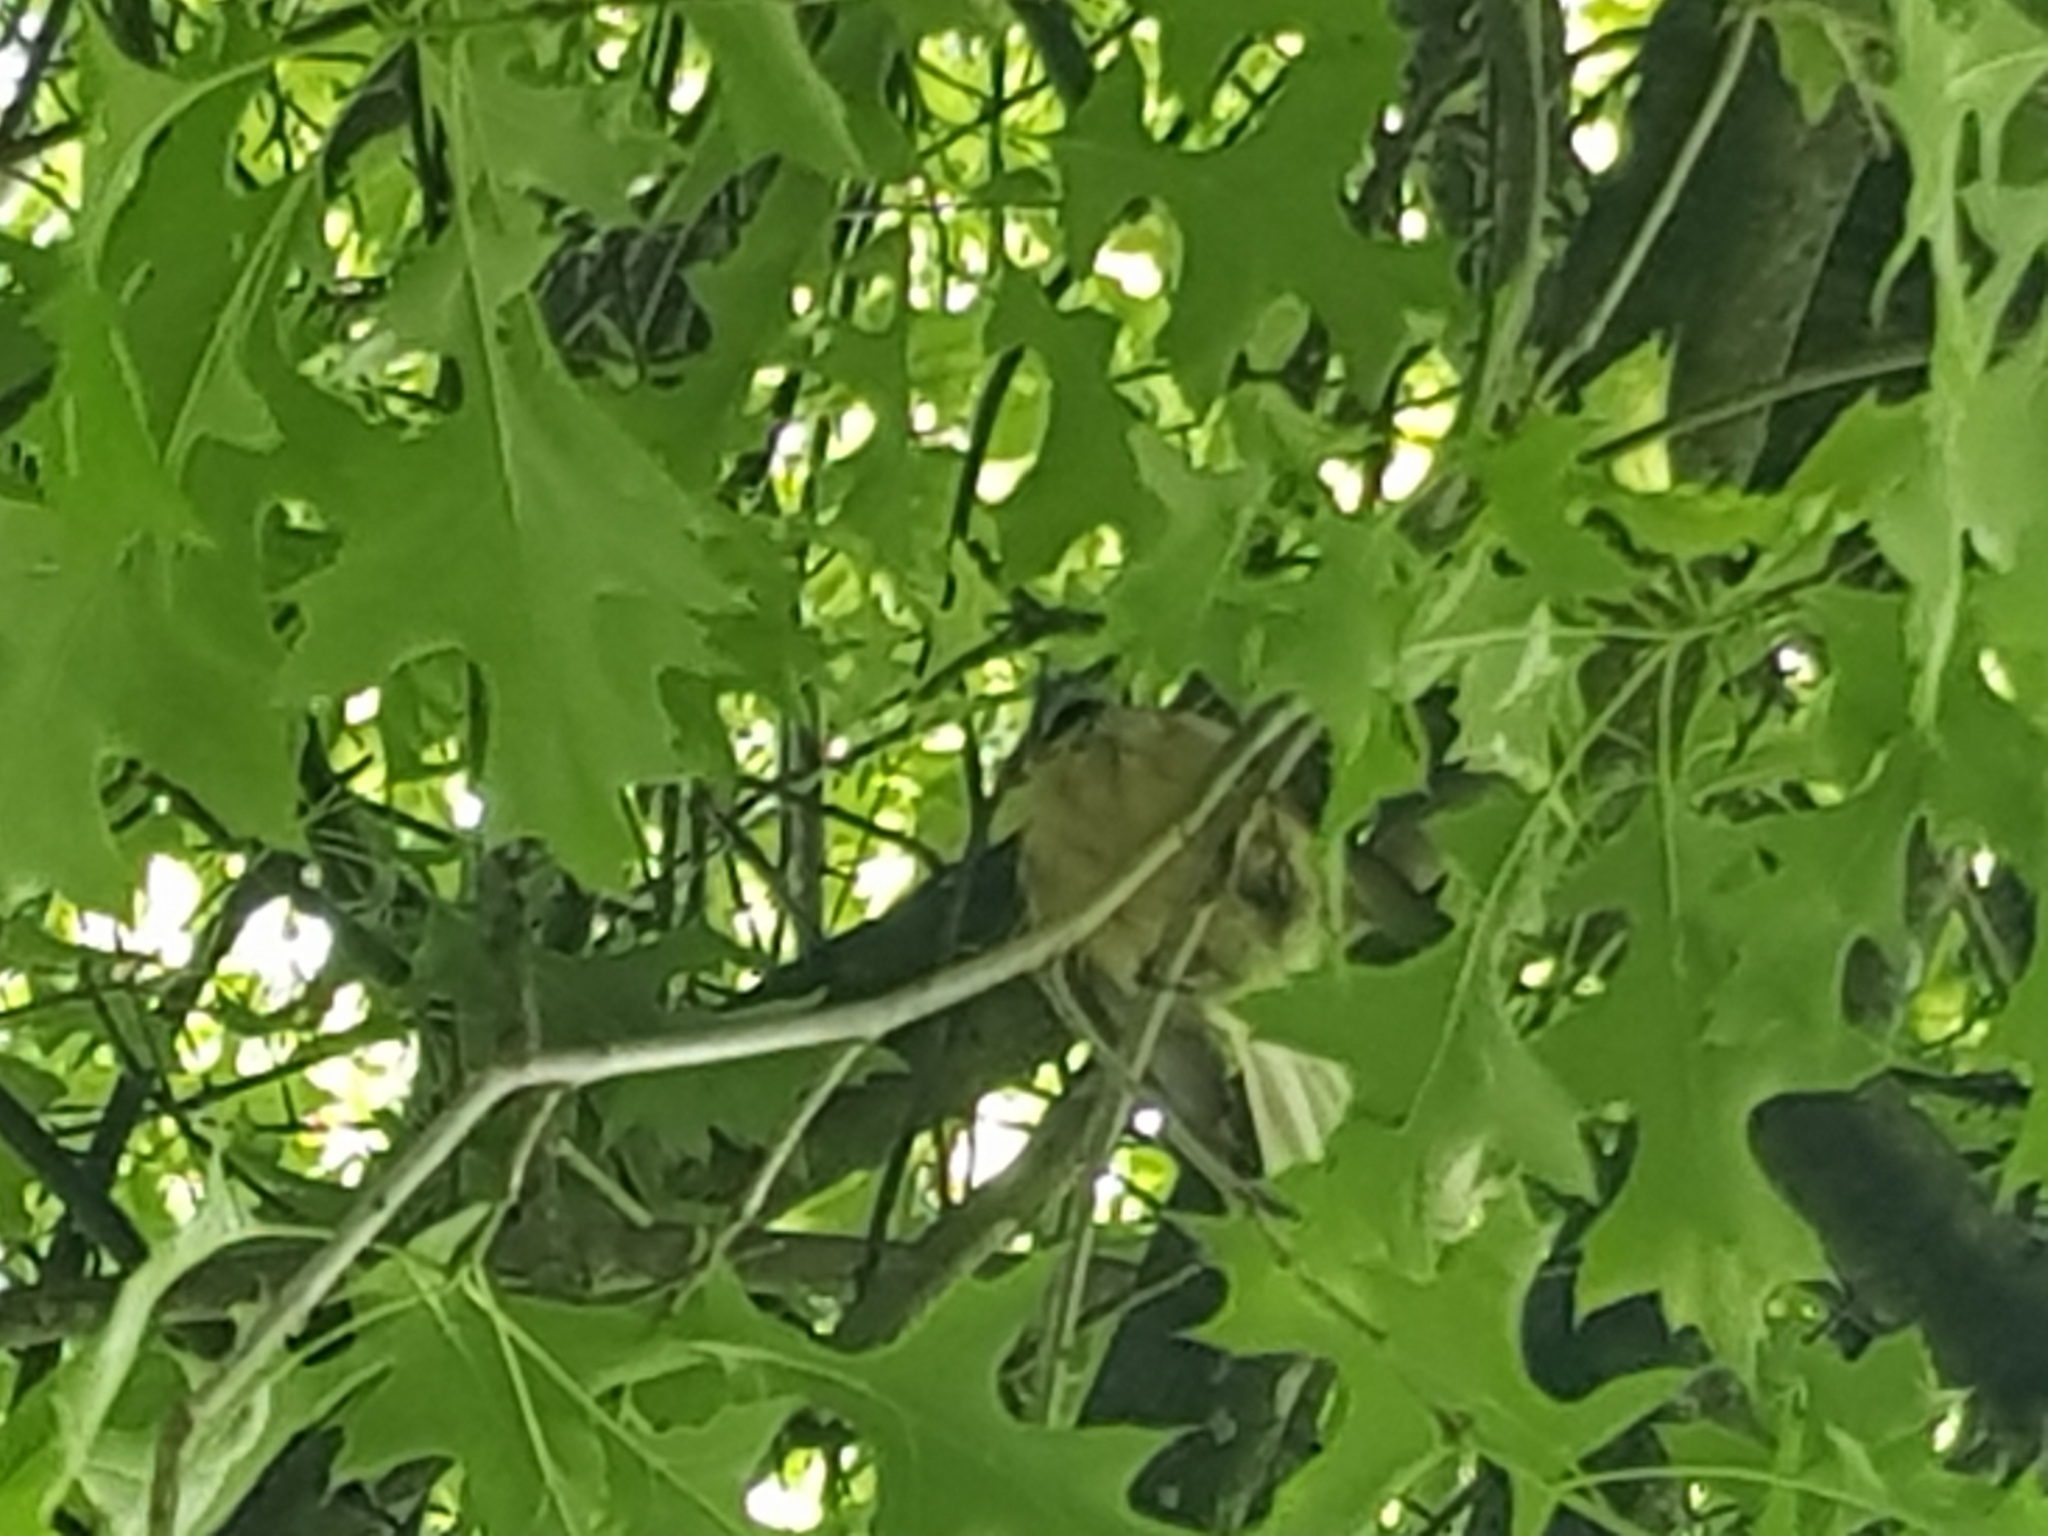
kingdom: Animalia
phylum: Chordata
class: Aves
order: Passeriformes
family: Rhipiduridae
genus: Rhipidura
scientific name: Rhipidura fuliginosa
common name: New zealand fantail
